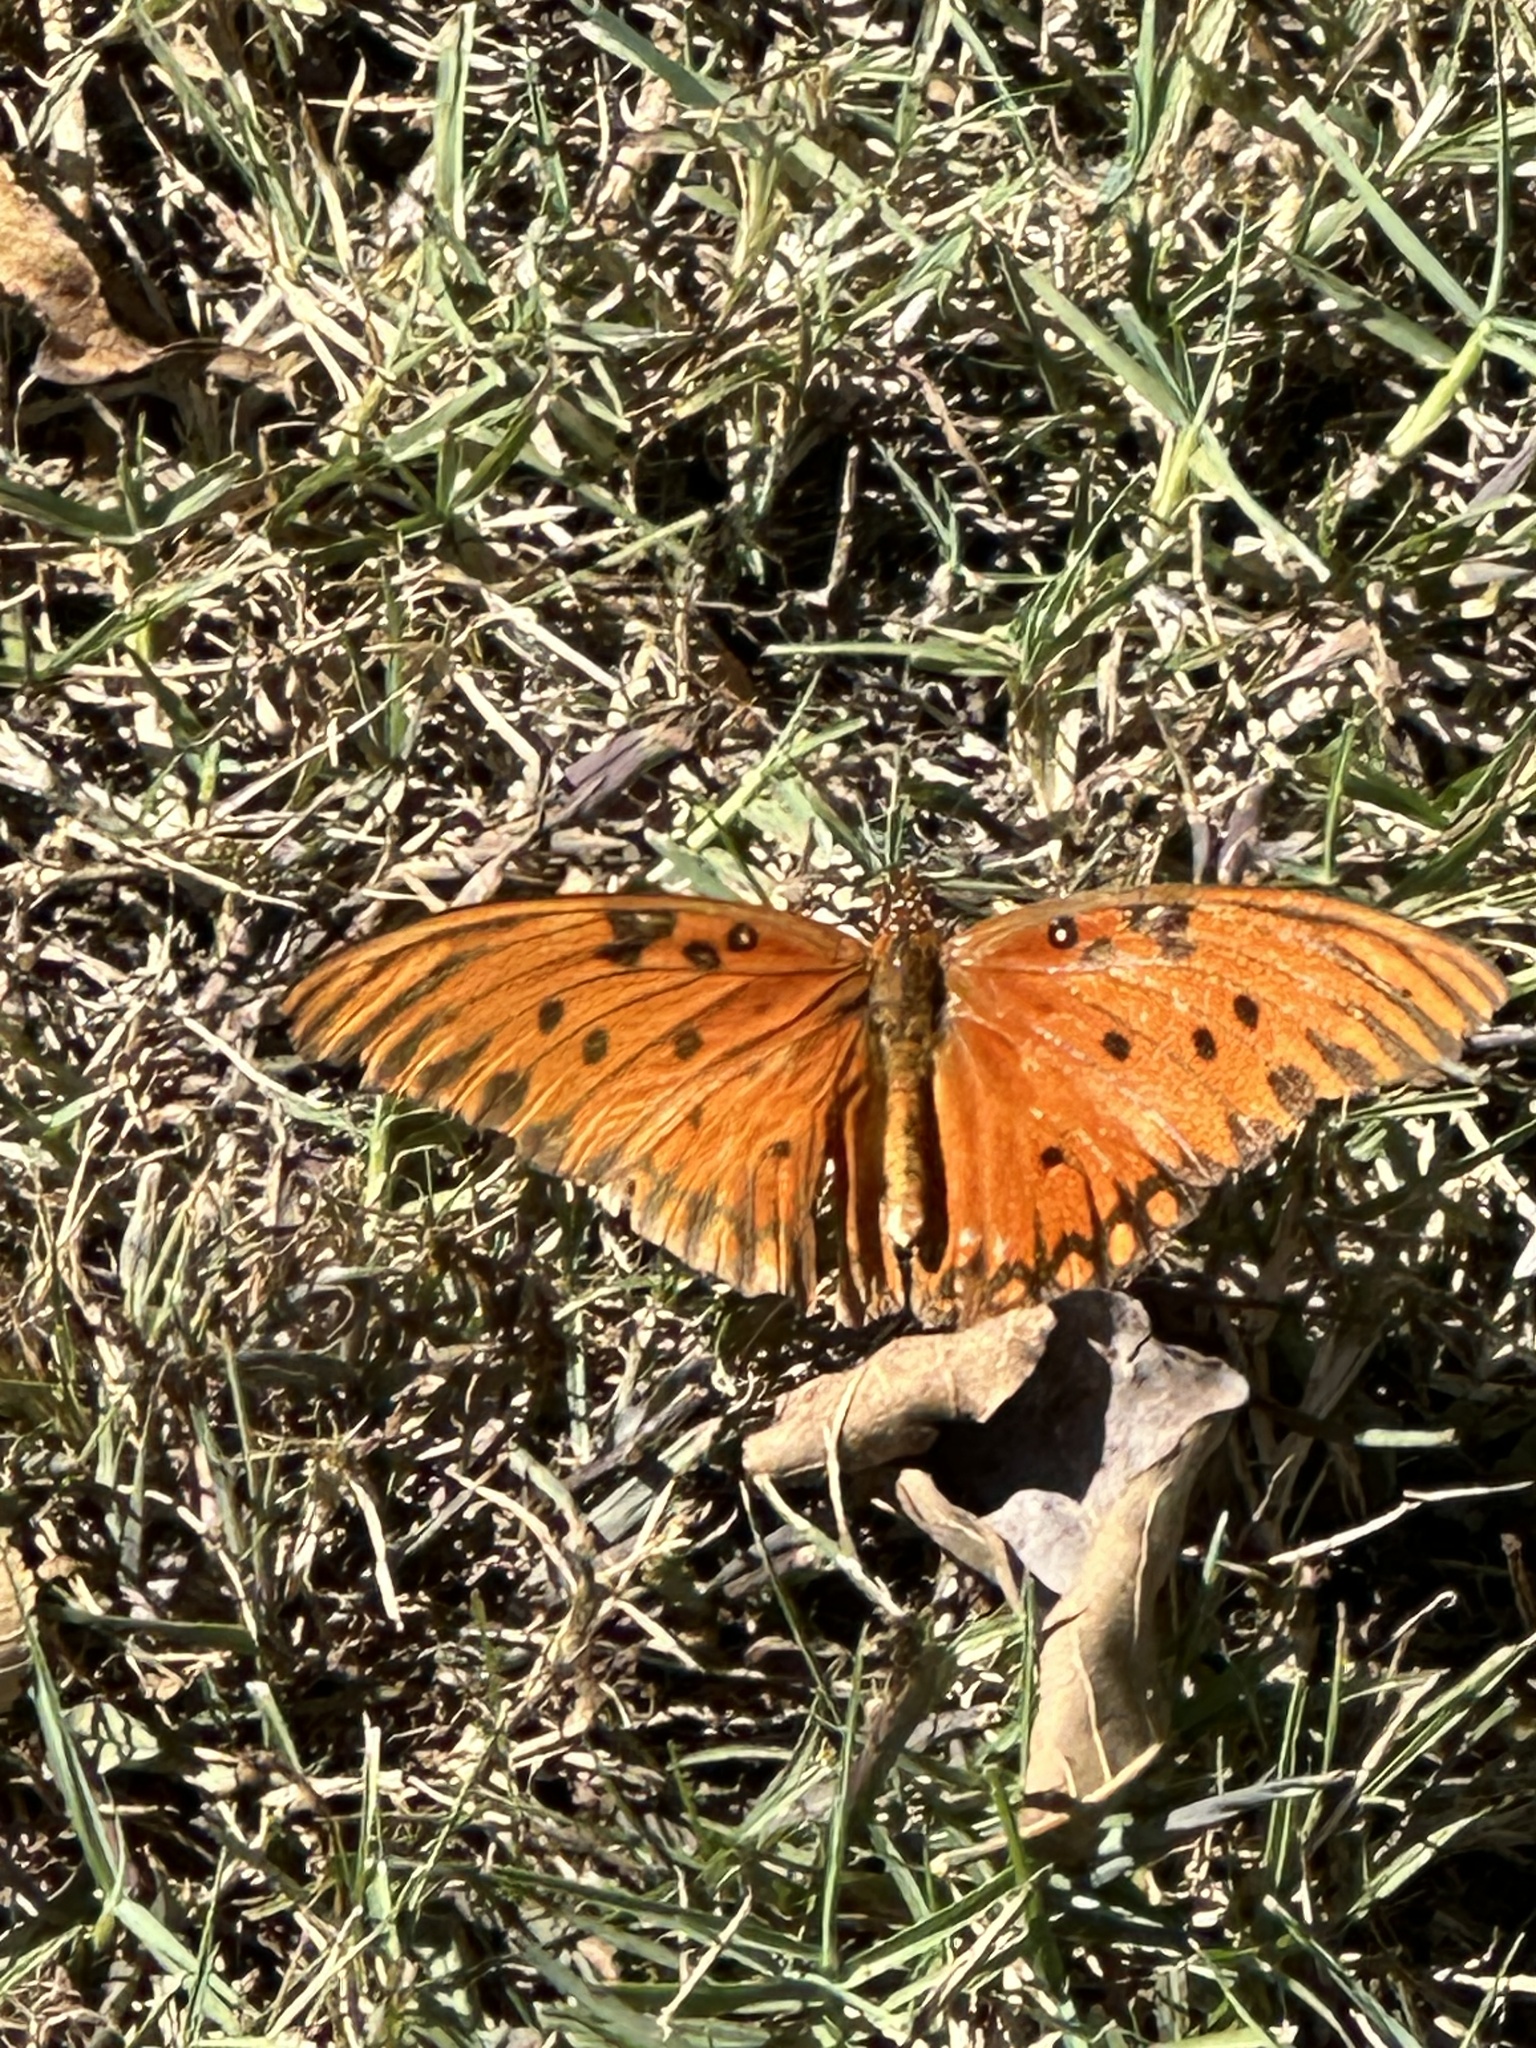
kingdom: Animalia
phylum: Arthropoda
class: Insecta
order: Lepidoptera
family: Nymphalidae
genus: Dione
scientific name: Dione vanillae
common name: Gulf fritillary
